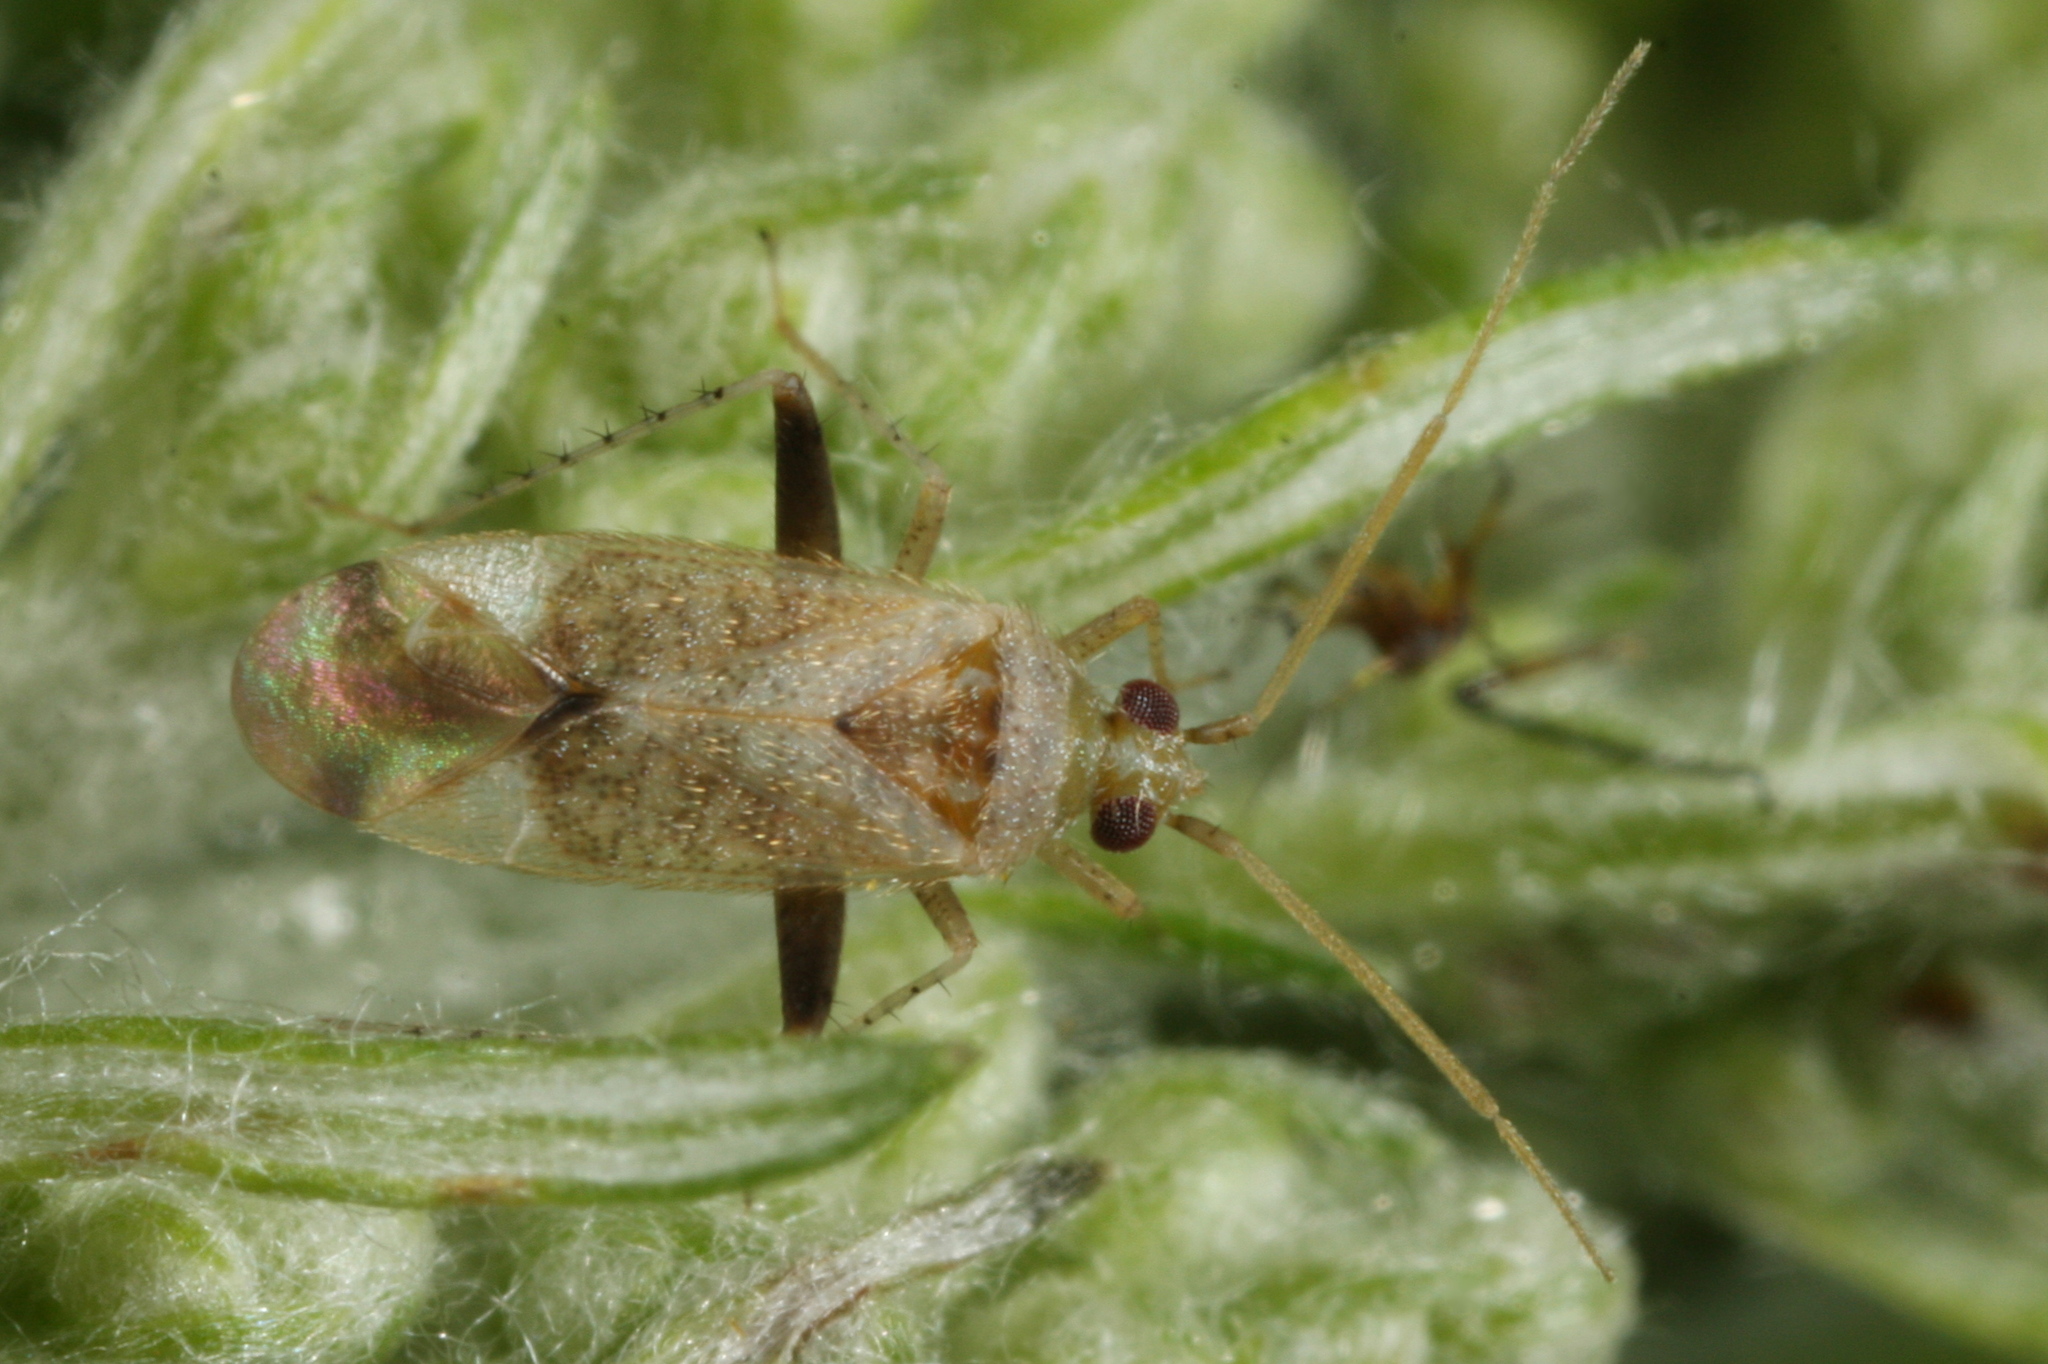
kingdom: Animalia
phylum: Arthropoda
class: Insecta
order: Hemiptera
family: Miridae
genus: Compsidolon
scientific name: Compsidolon salicellum
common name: Plant bug
